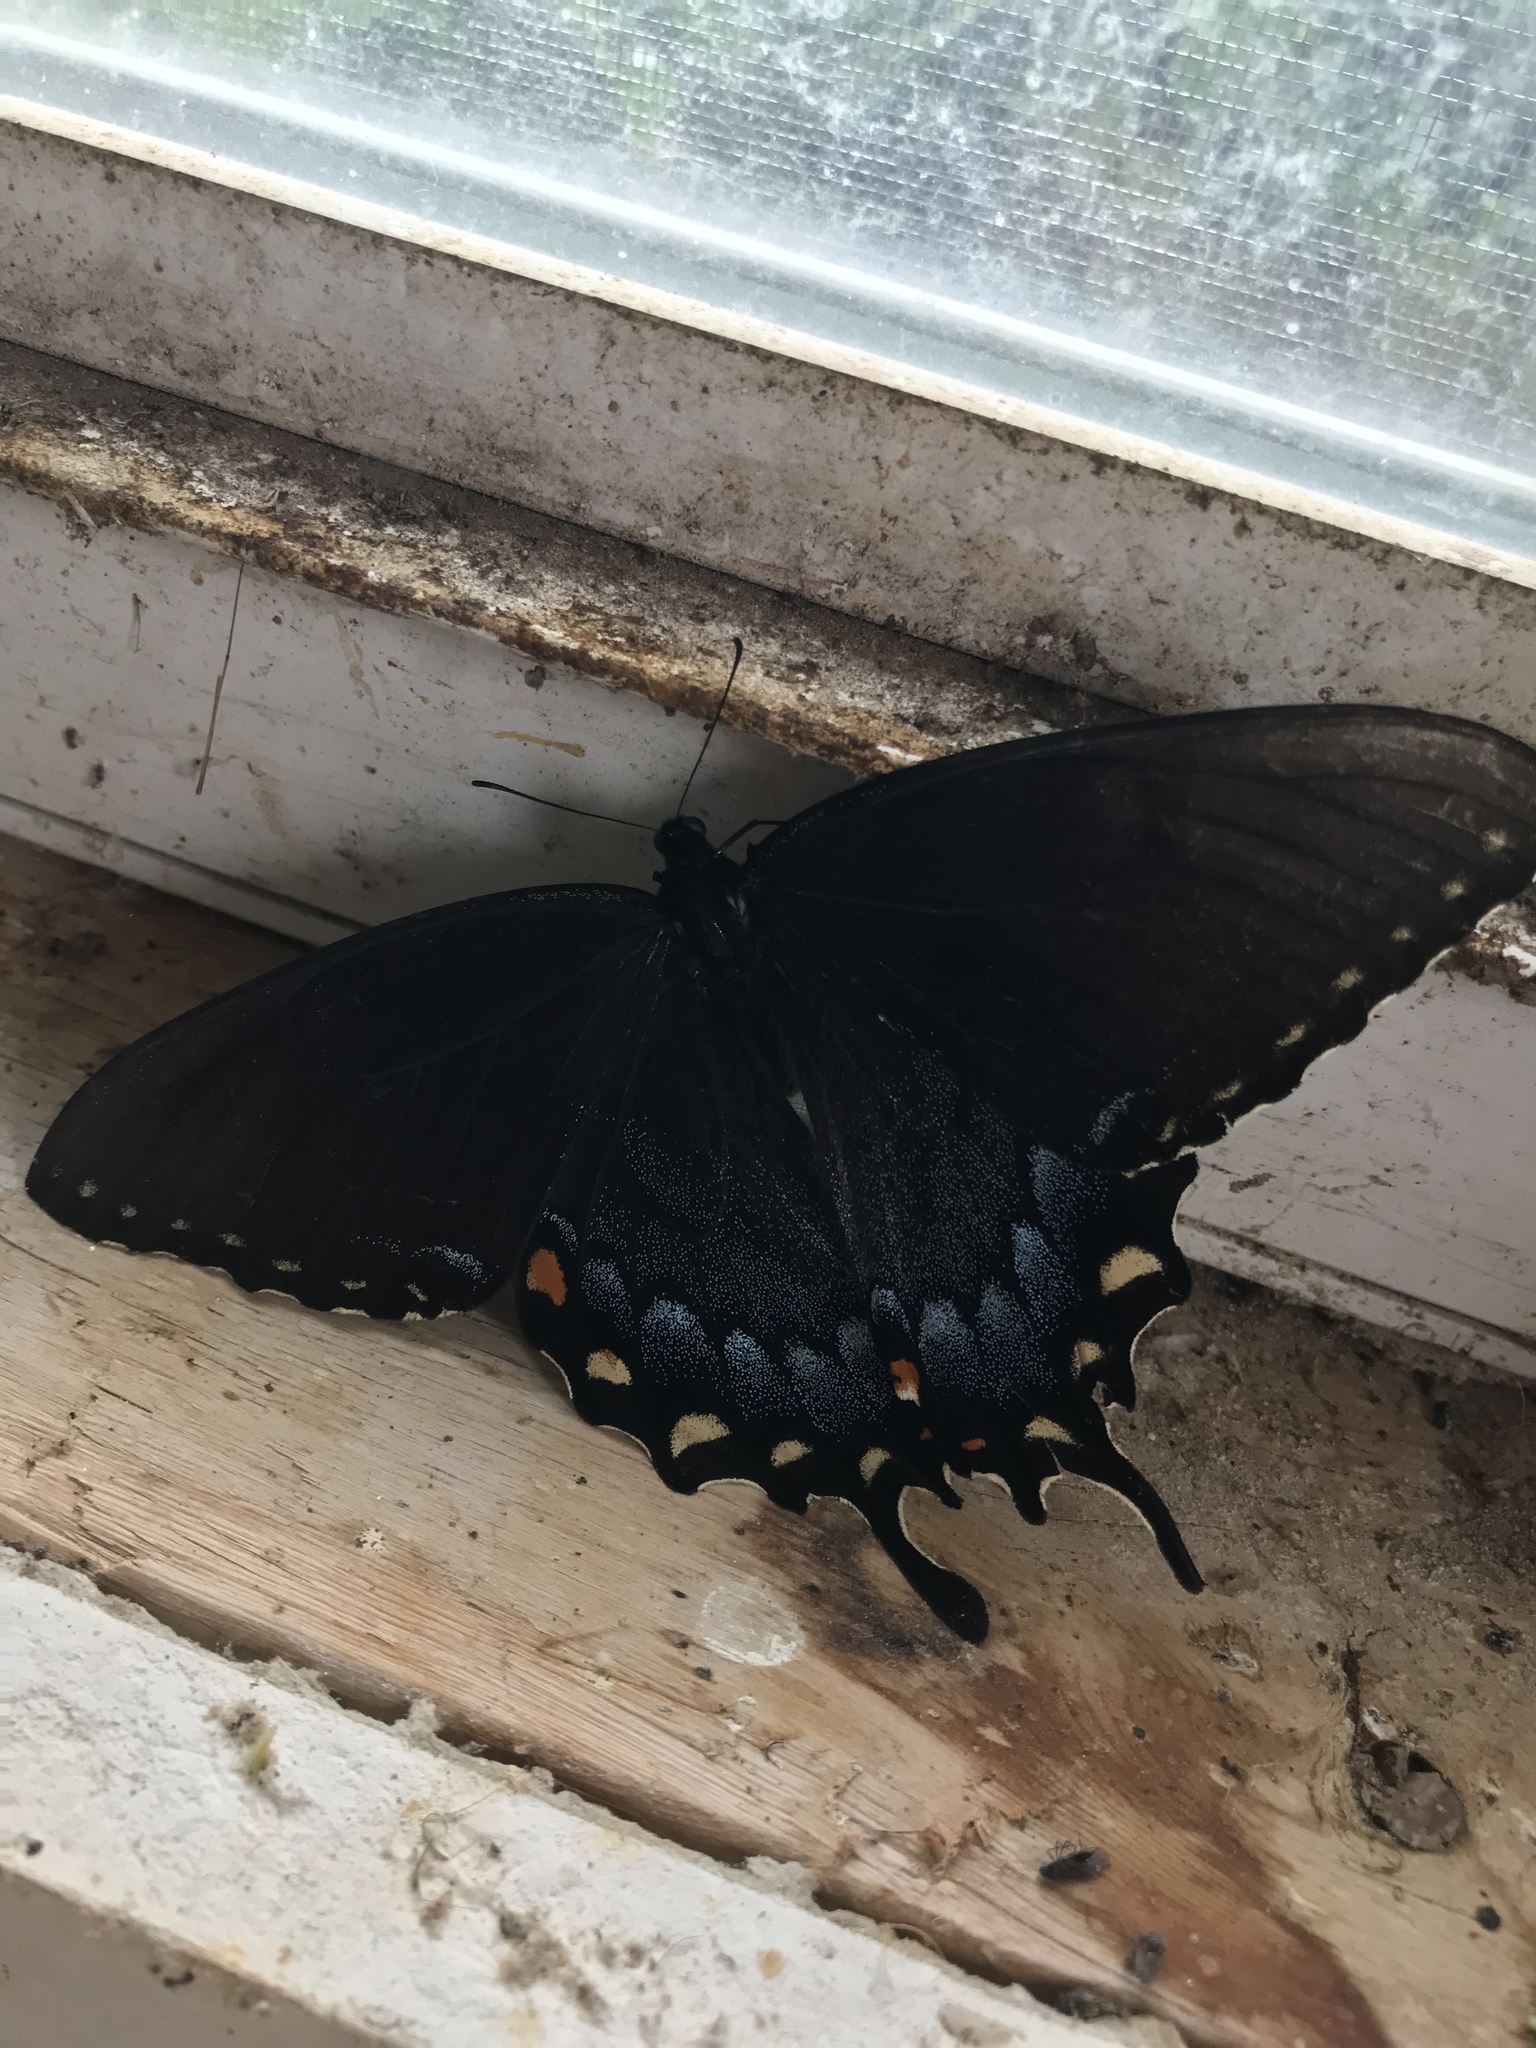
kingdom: Animalia
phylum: Arthropoda
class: Insecta
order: Lepidoptera
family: Papilionidae
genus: Papilio
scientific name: Papilio glaucus
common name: Tiger swallowtail
